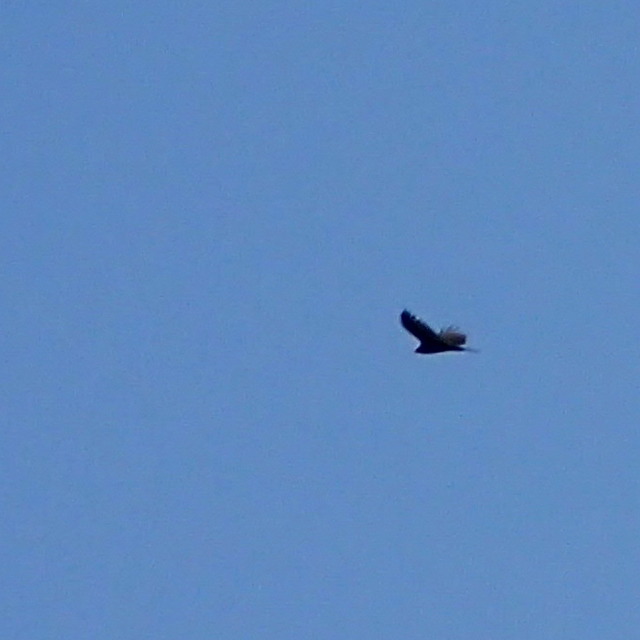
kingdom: Animalia
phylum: Chordata
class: Aves
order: Accipitriformes
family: Cathartidae
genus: Cathartes
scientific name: Cathartes aura
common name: Turkey vulture
